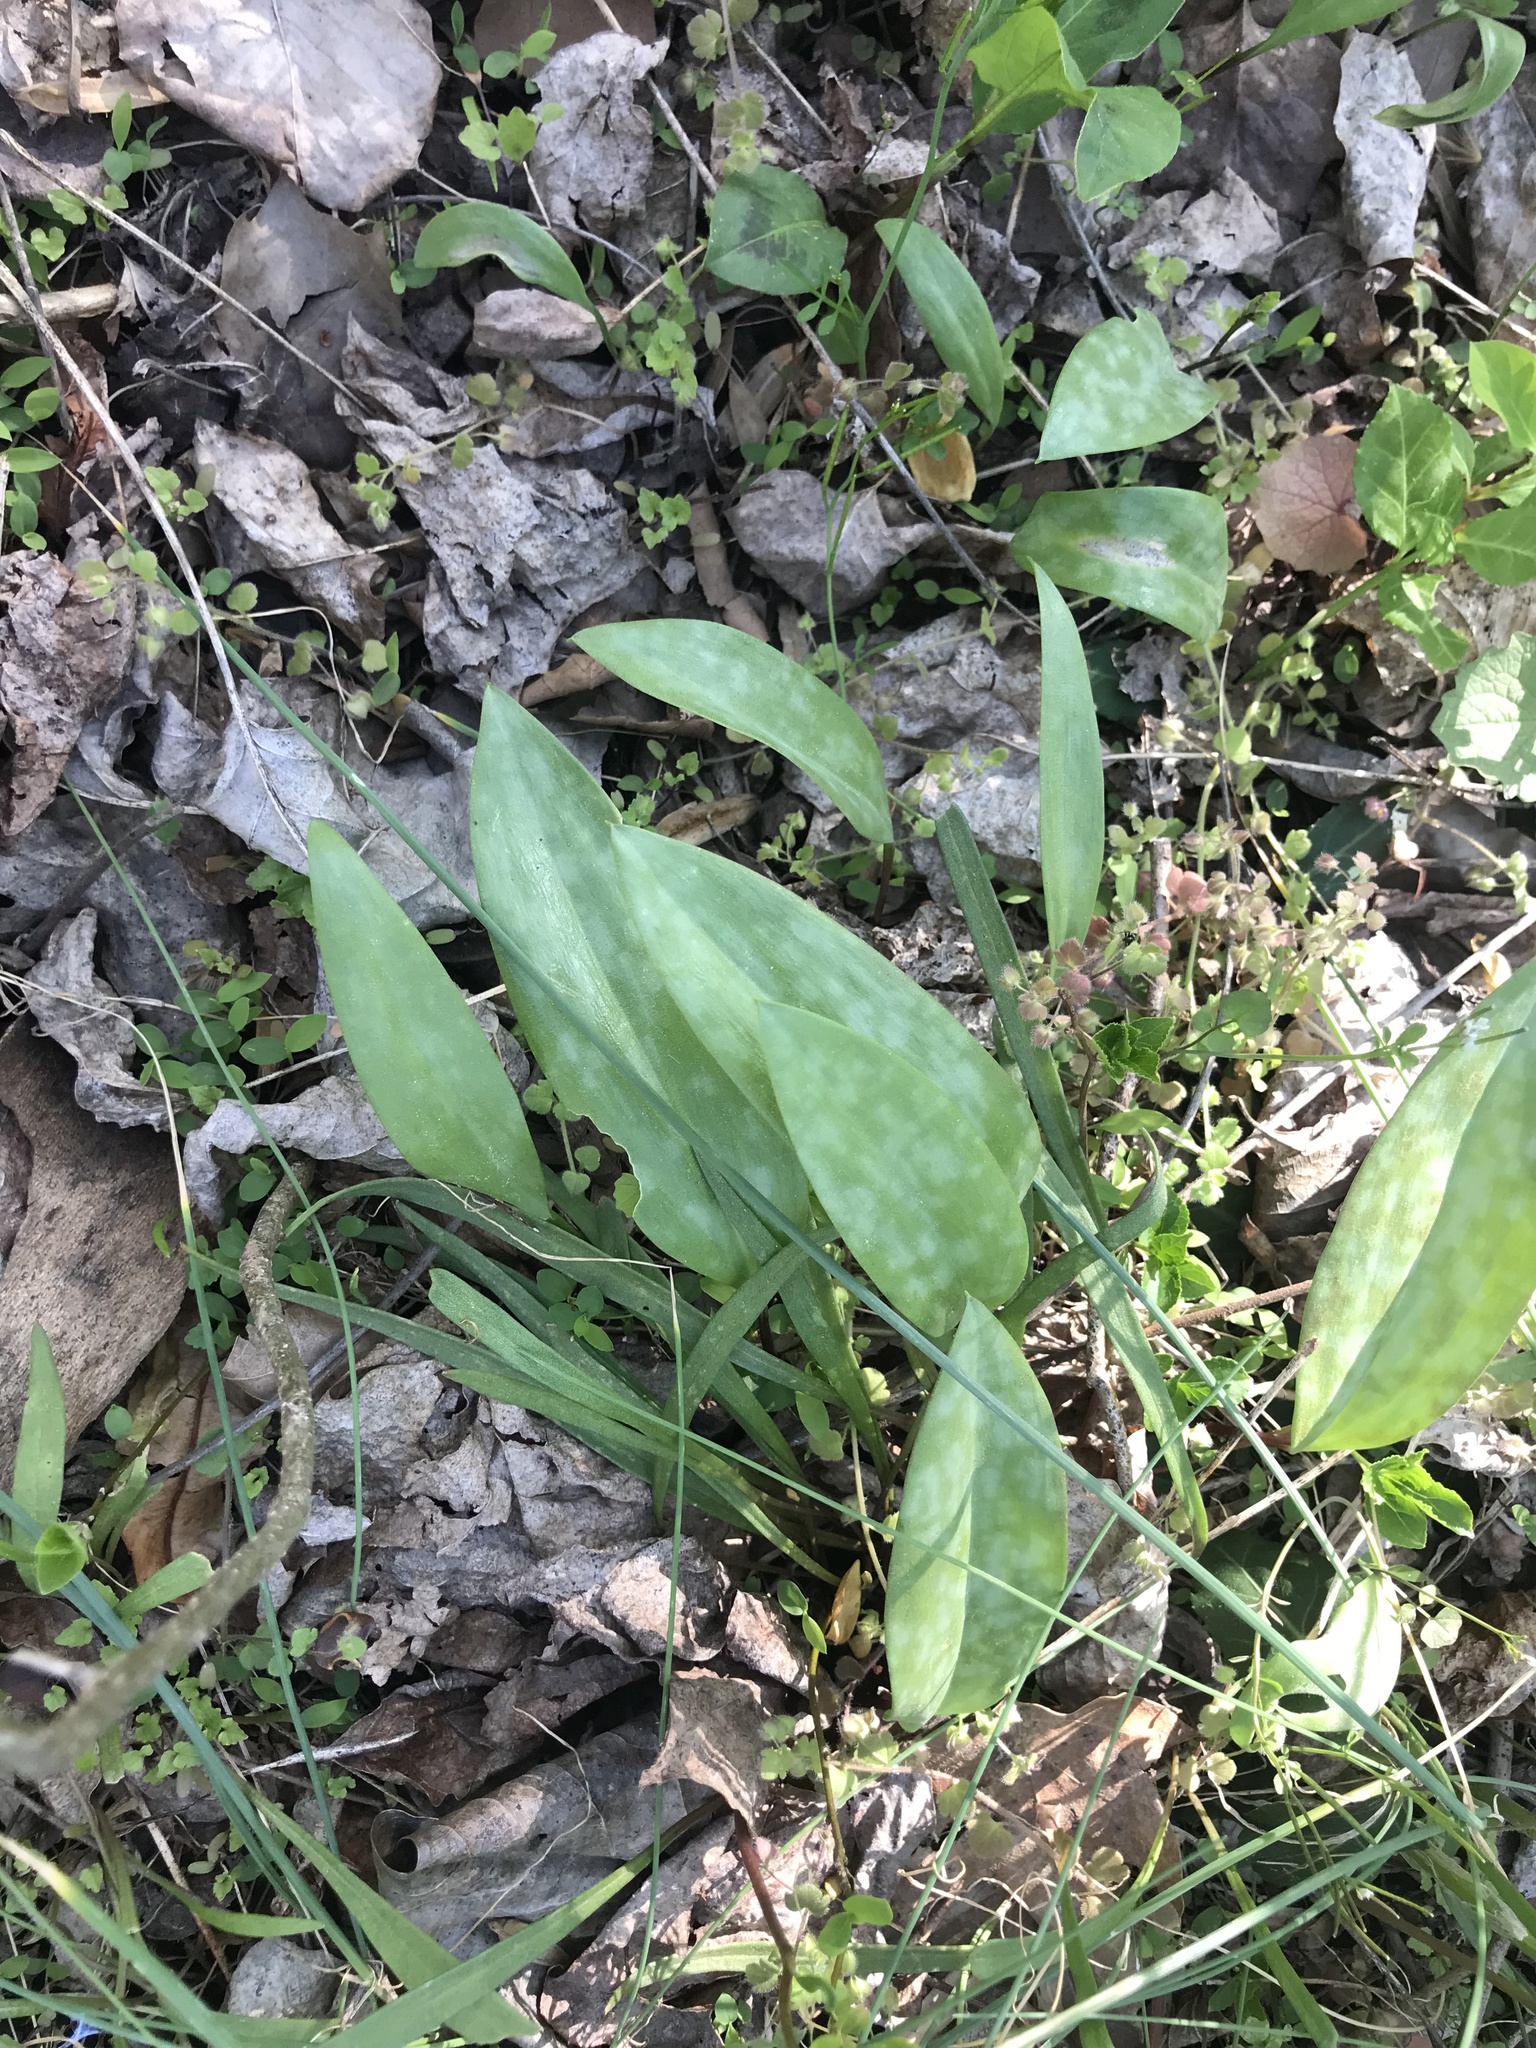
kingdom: Plantae
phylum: Tracheophyta
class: Liliopsida
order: Liliales
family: Liliaceae
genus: Erythronium
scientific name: Erythronium americanum
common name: Yellow adder's-tongue
